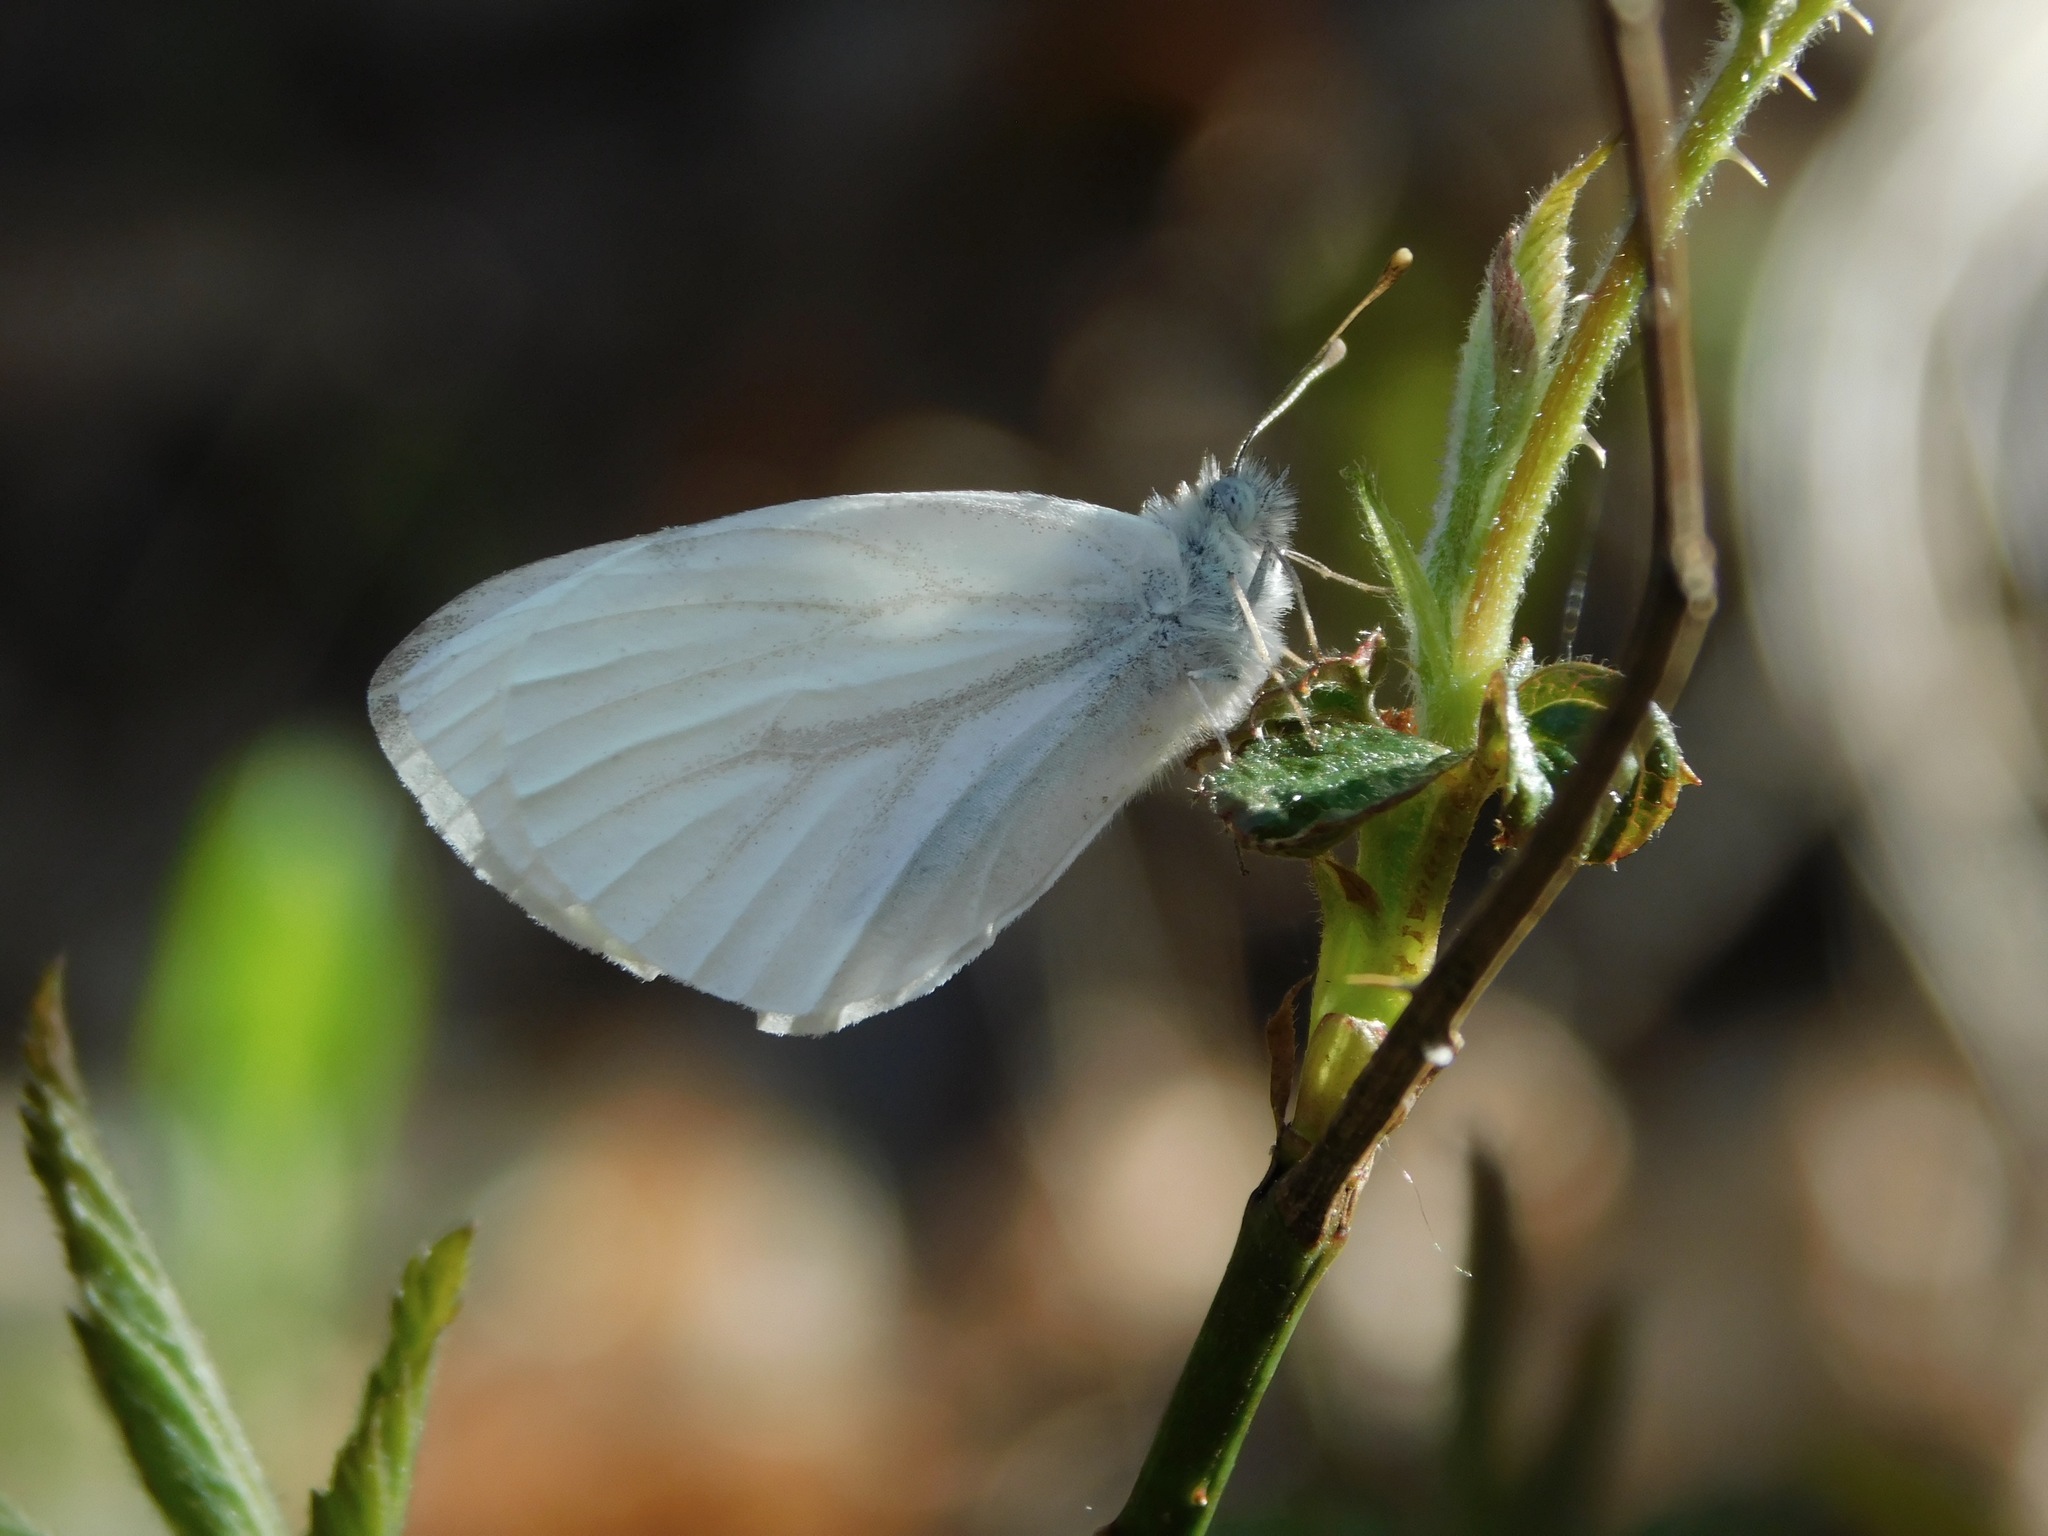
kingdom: Animalia
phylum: Arthropoda
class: Insecta
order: Lepidoptera
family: Pieridae
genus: Pieris
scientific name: Pieris virginiensis
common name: West virginia white
